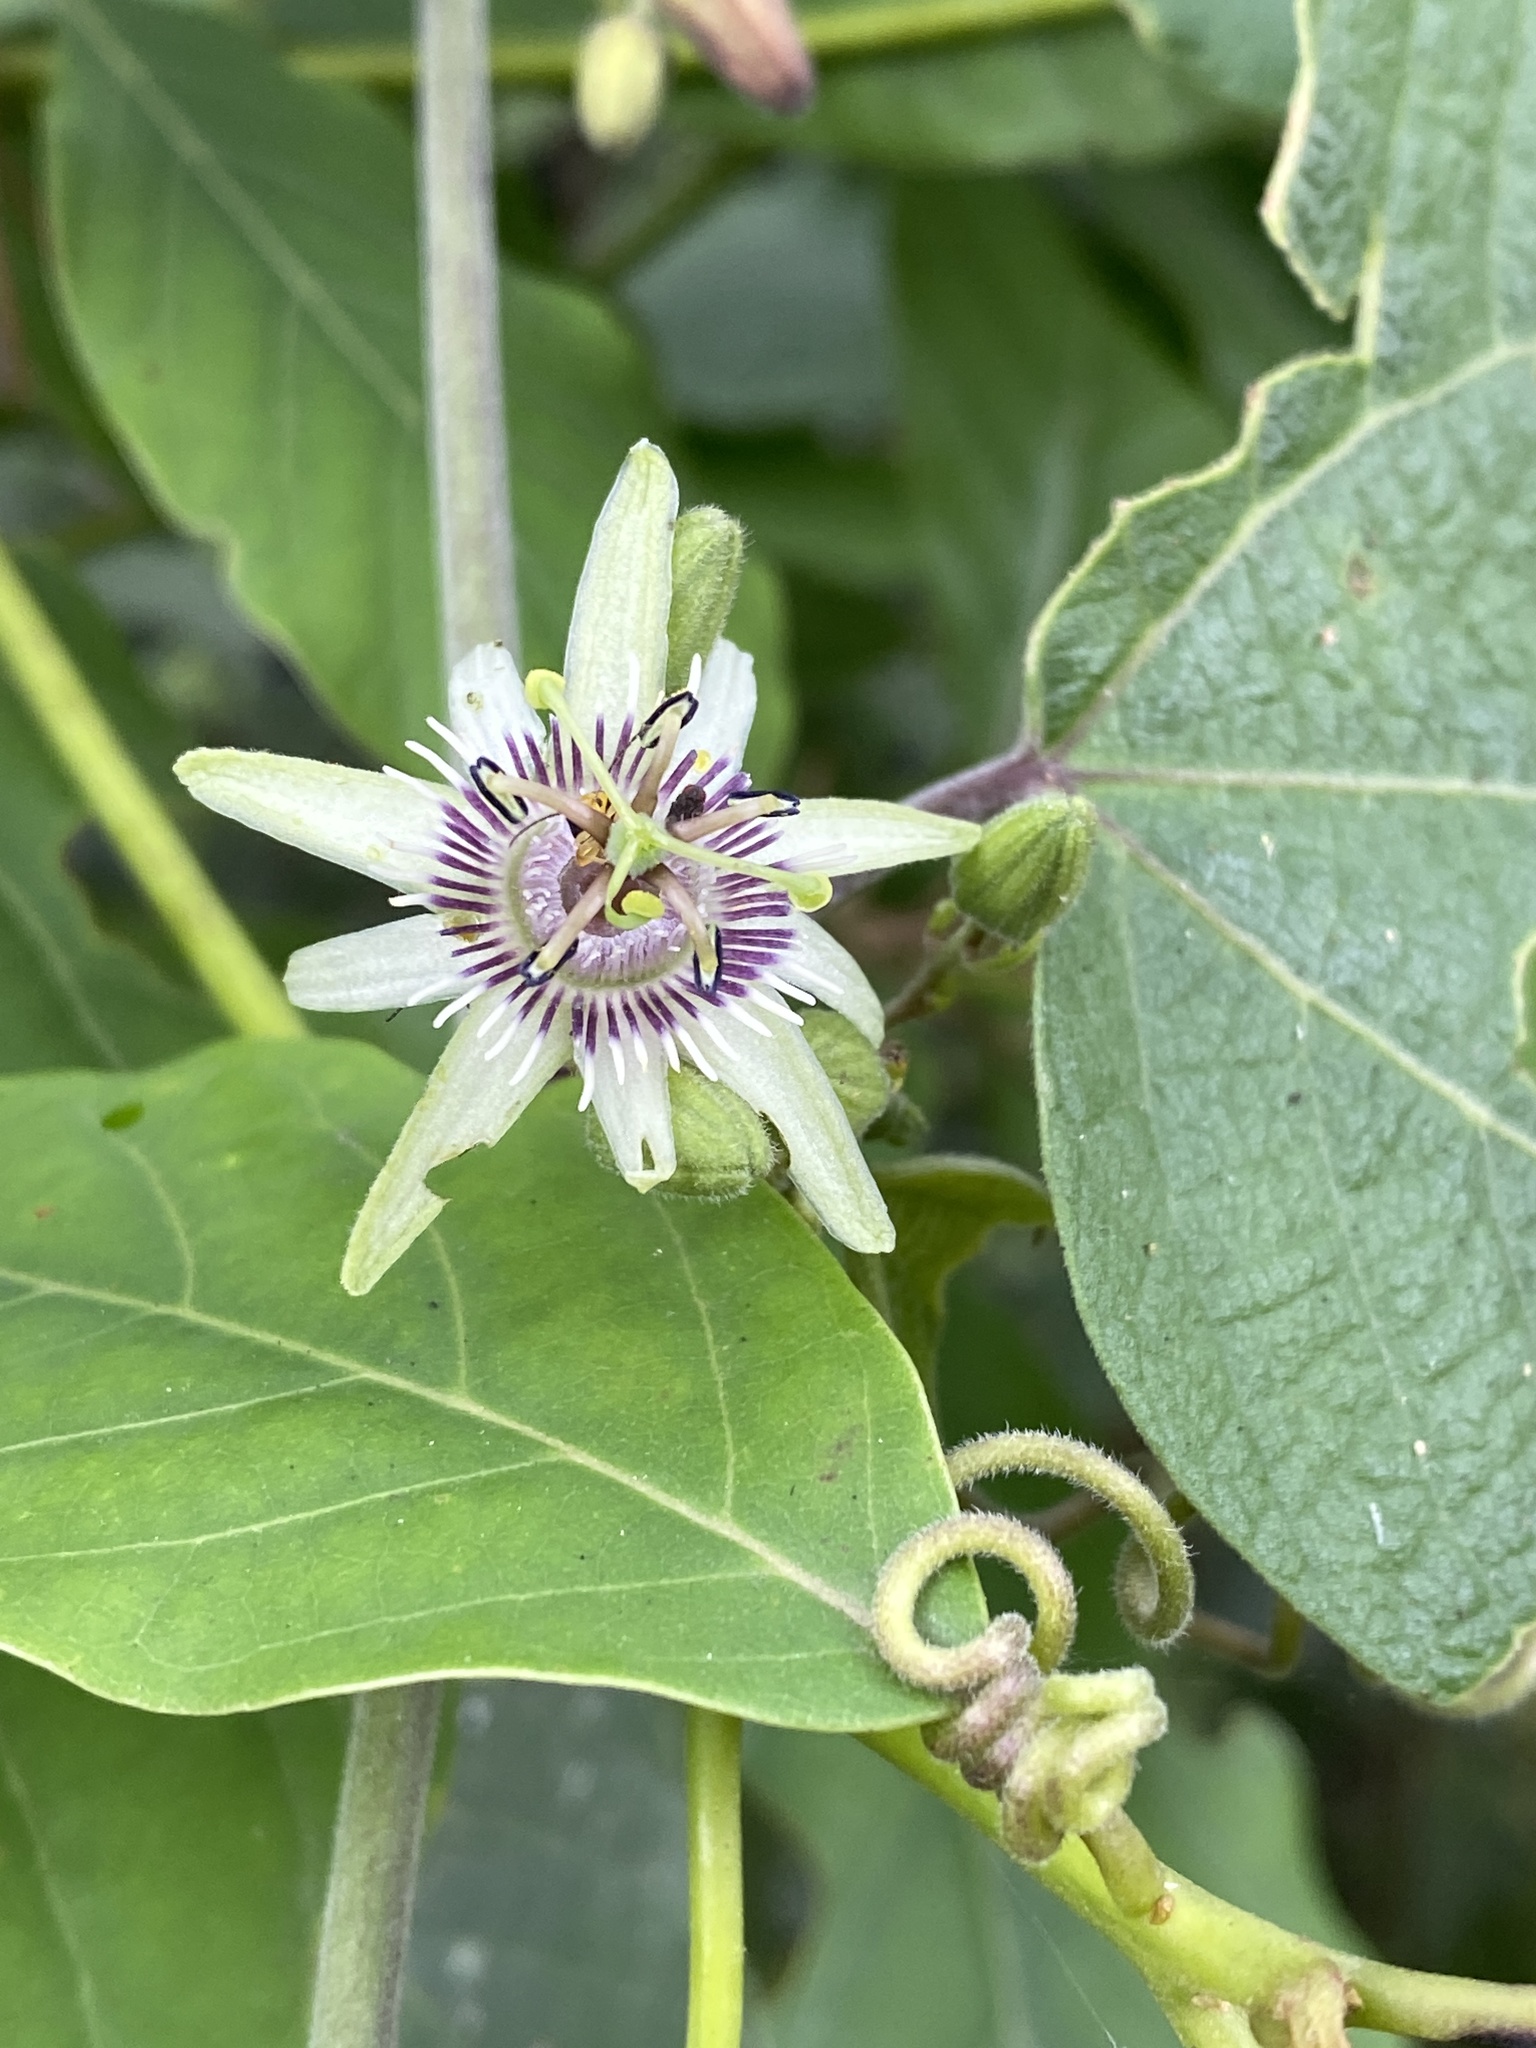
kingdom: Plantae
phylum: Tracheophyta
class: Magnoliopsida
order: Malpighiales
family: Passifloraceae
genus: Passiflora
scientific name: Passiflora sexflora
